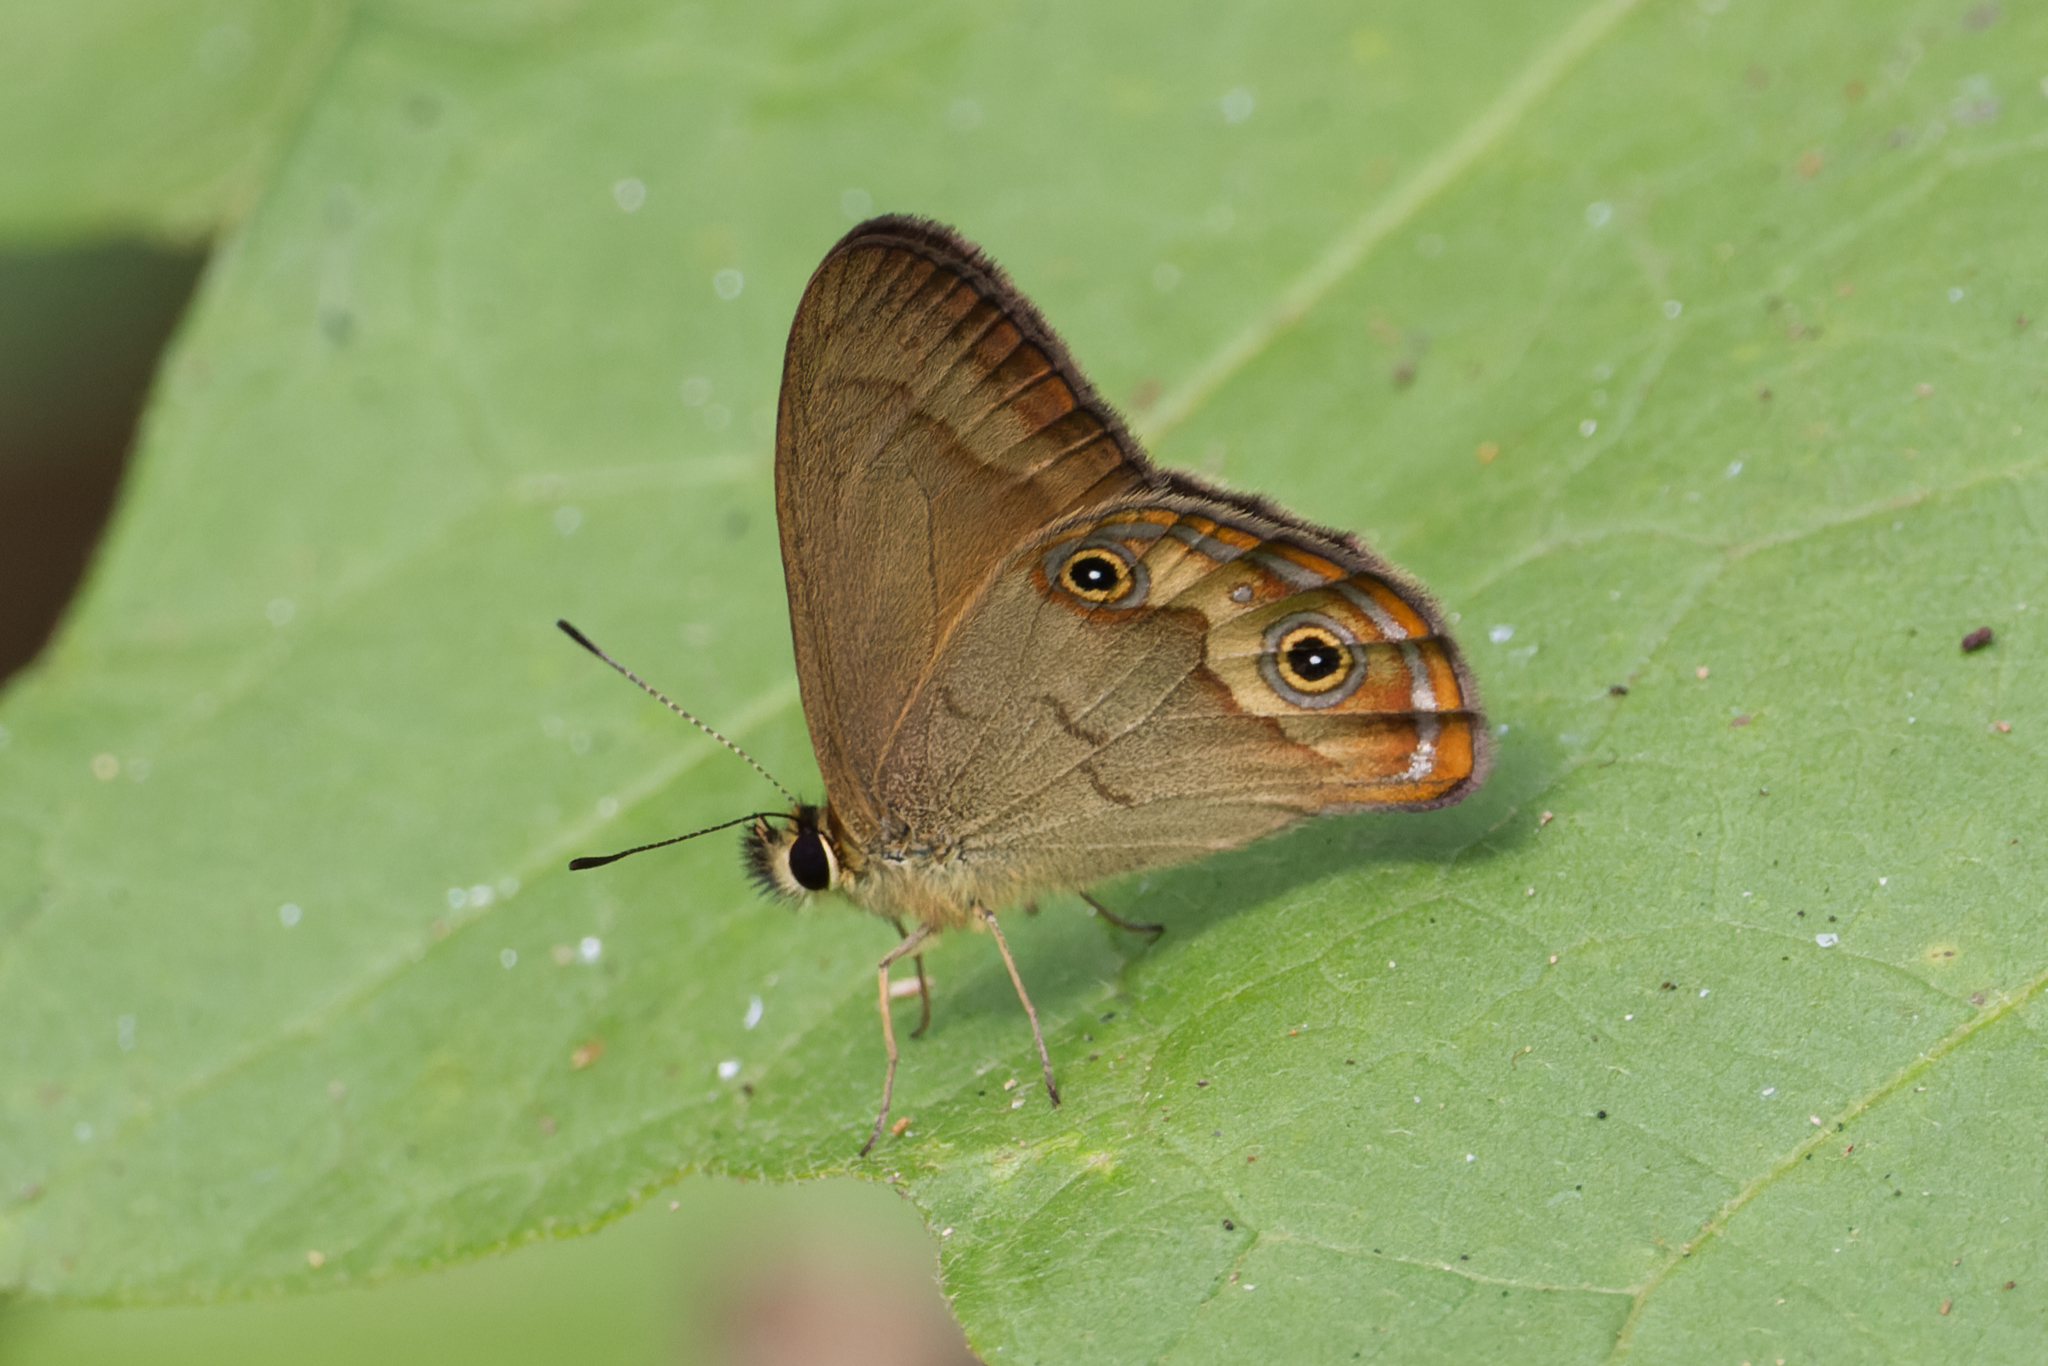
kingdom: Animalia
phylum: Arthropoda
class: Insecta
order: Lepidoptera
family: Nymphalidae
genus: Hypocysta
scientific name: Hypocysta metirius
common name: Brown ringlet
